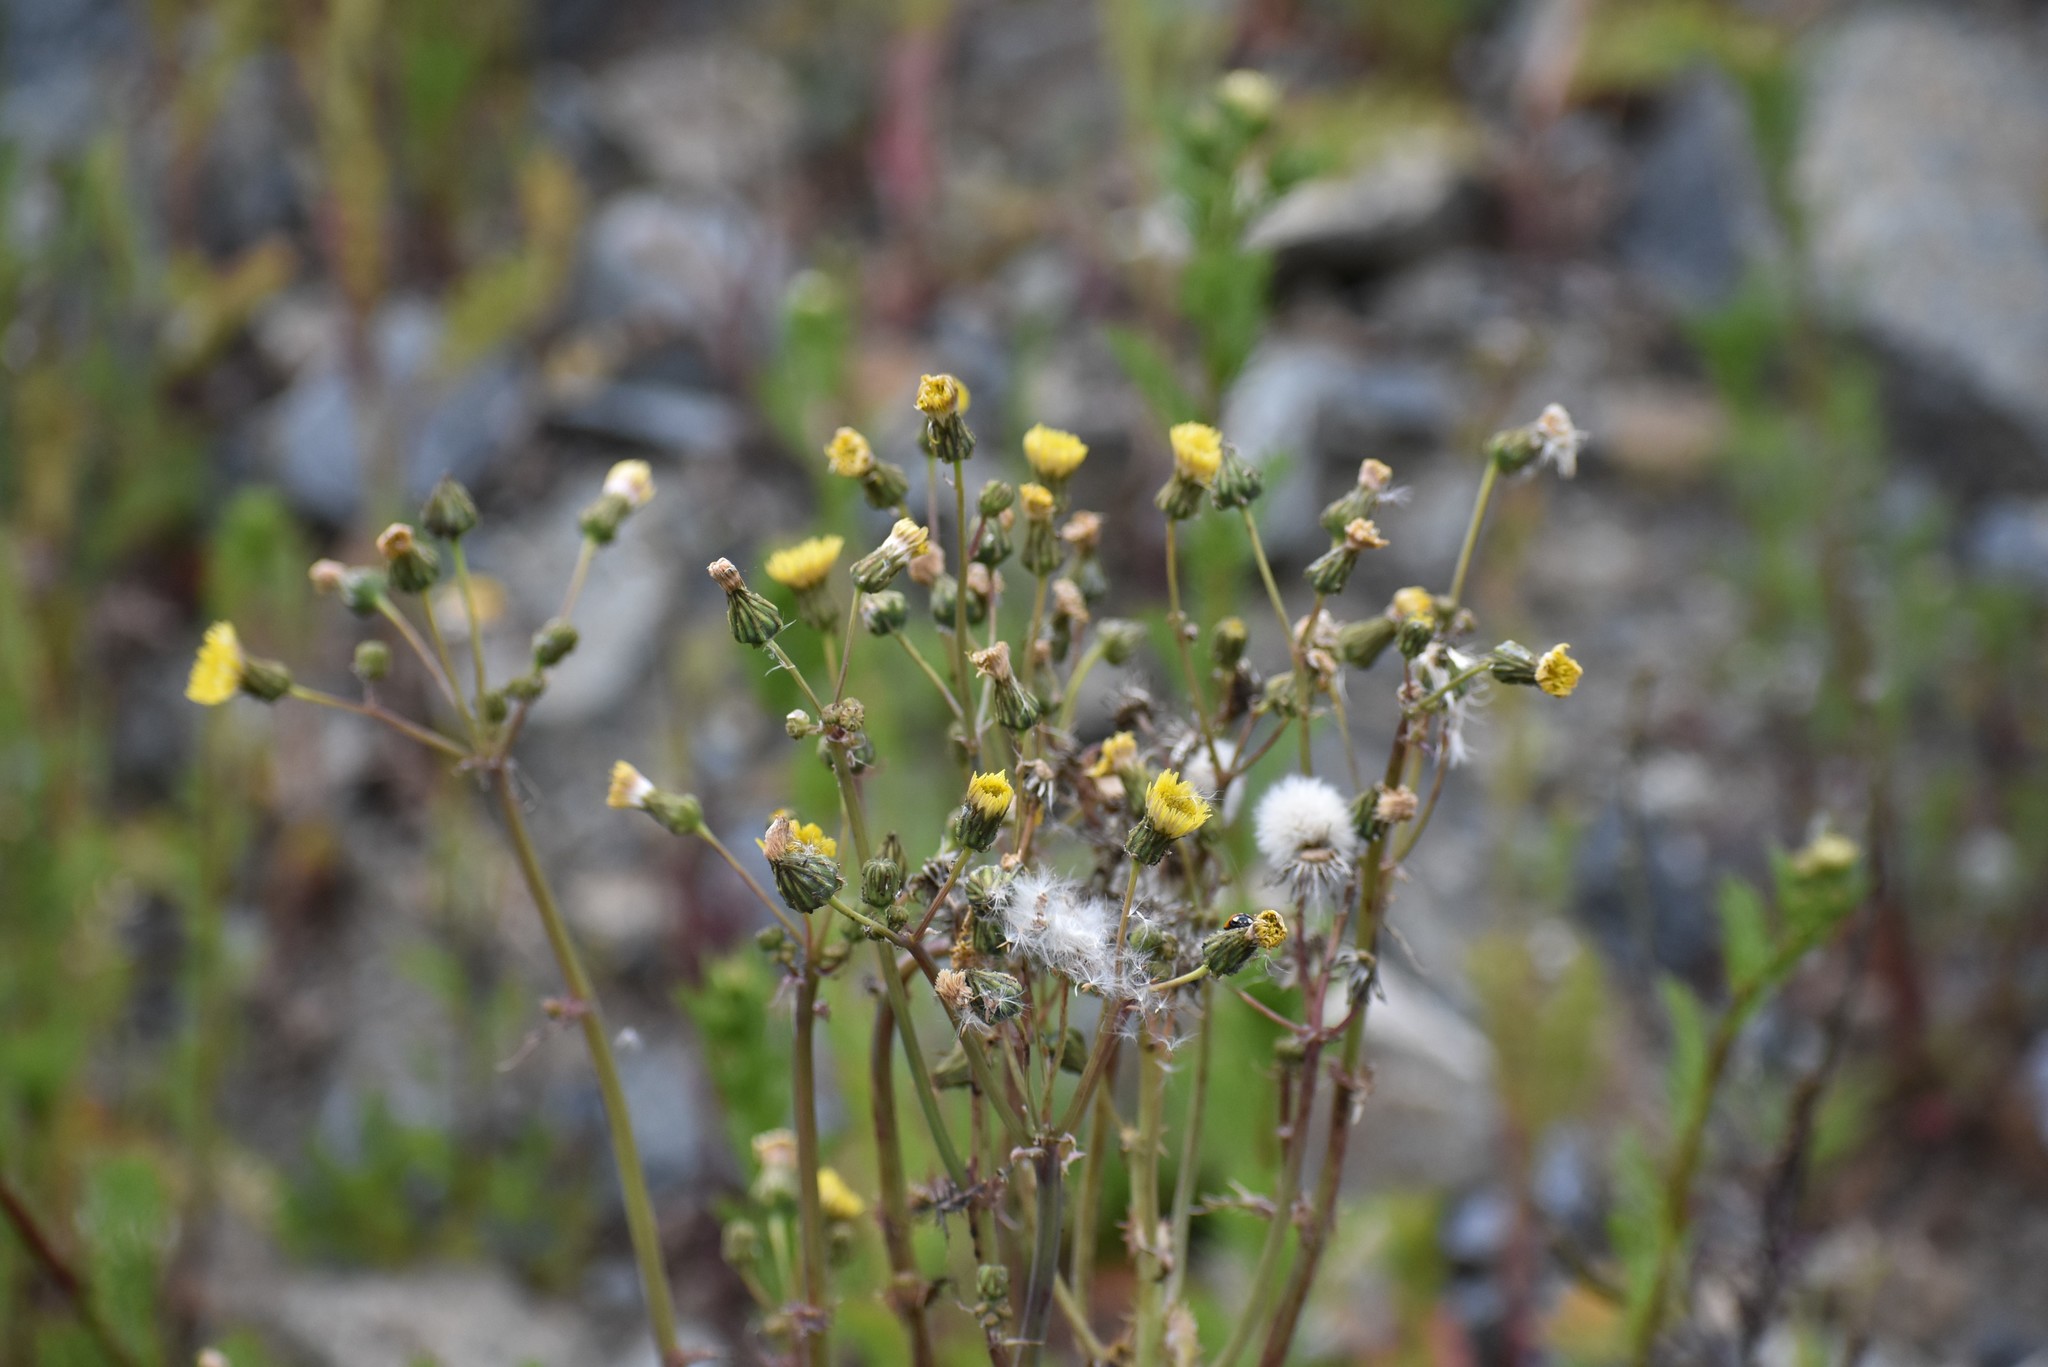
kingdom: Plantae
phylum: Tracheophyta
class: Magnoliopsida
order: Asterales
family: Asteraceae
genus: Senecio
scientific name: Senecio vulgaris
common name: Old-man-in-the-spring
